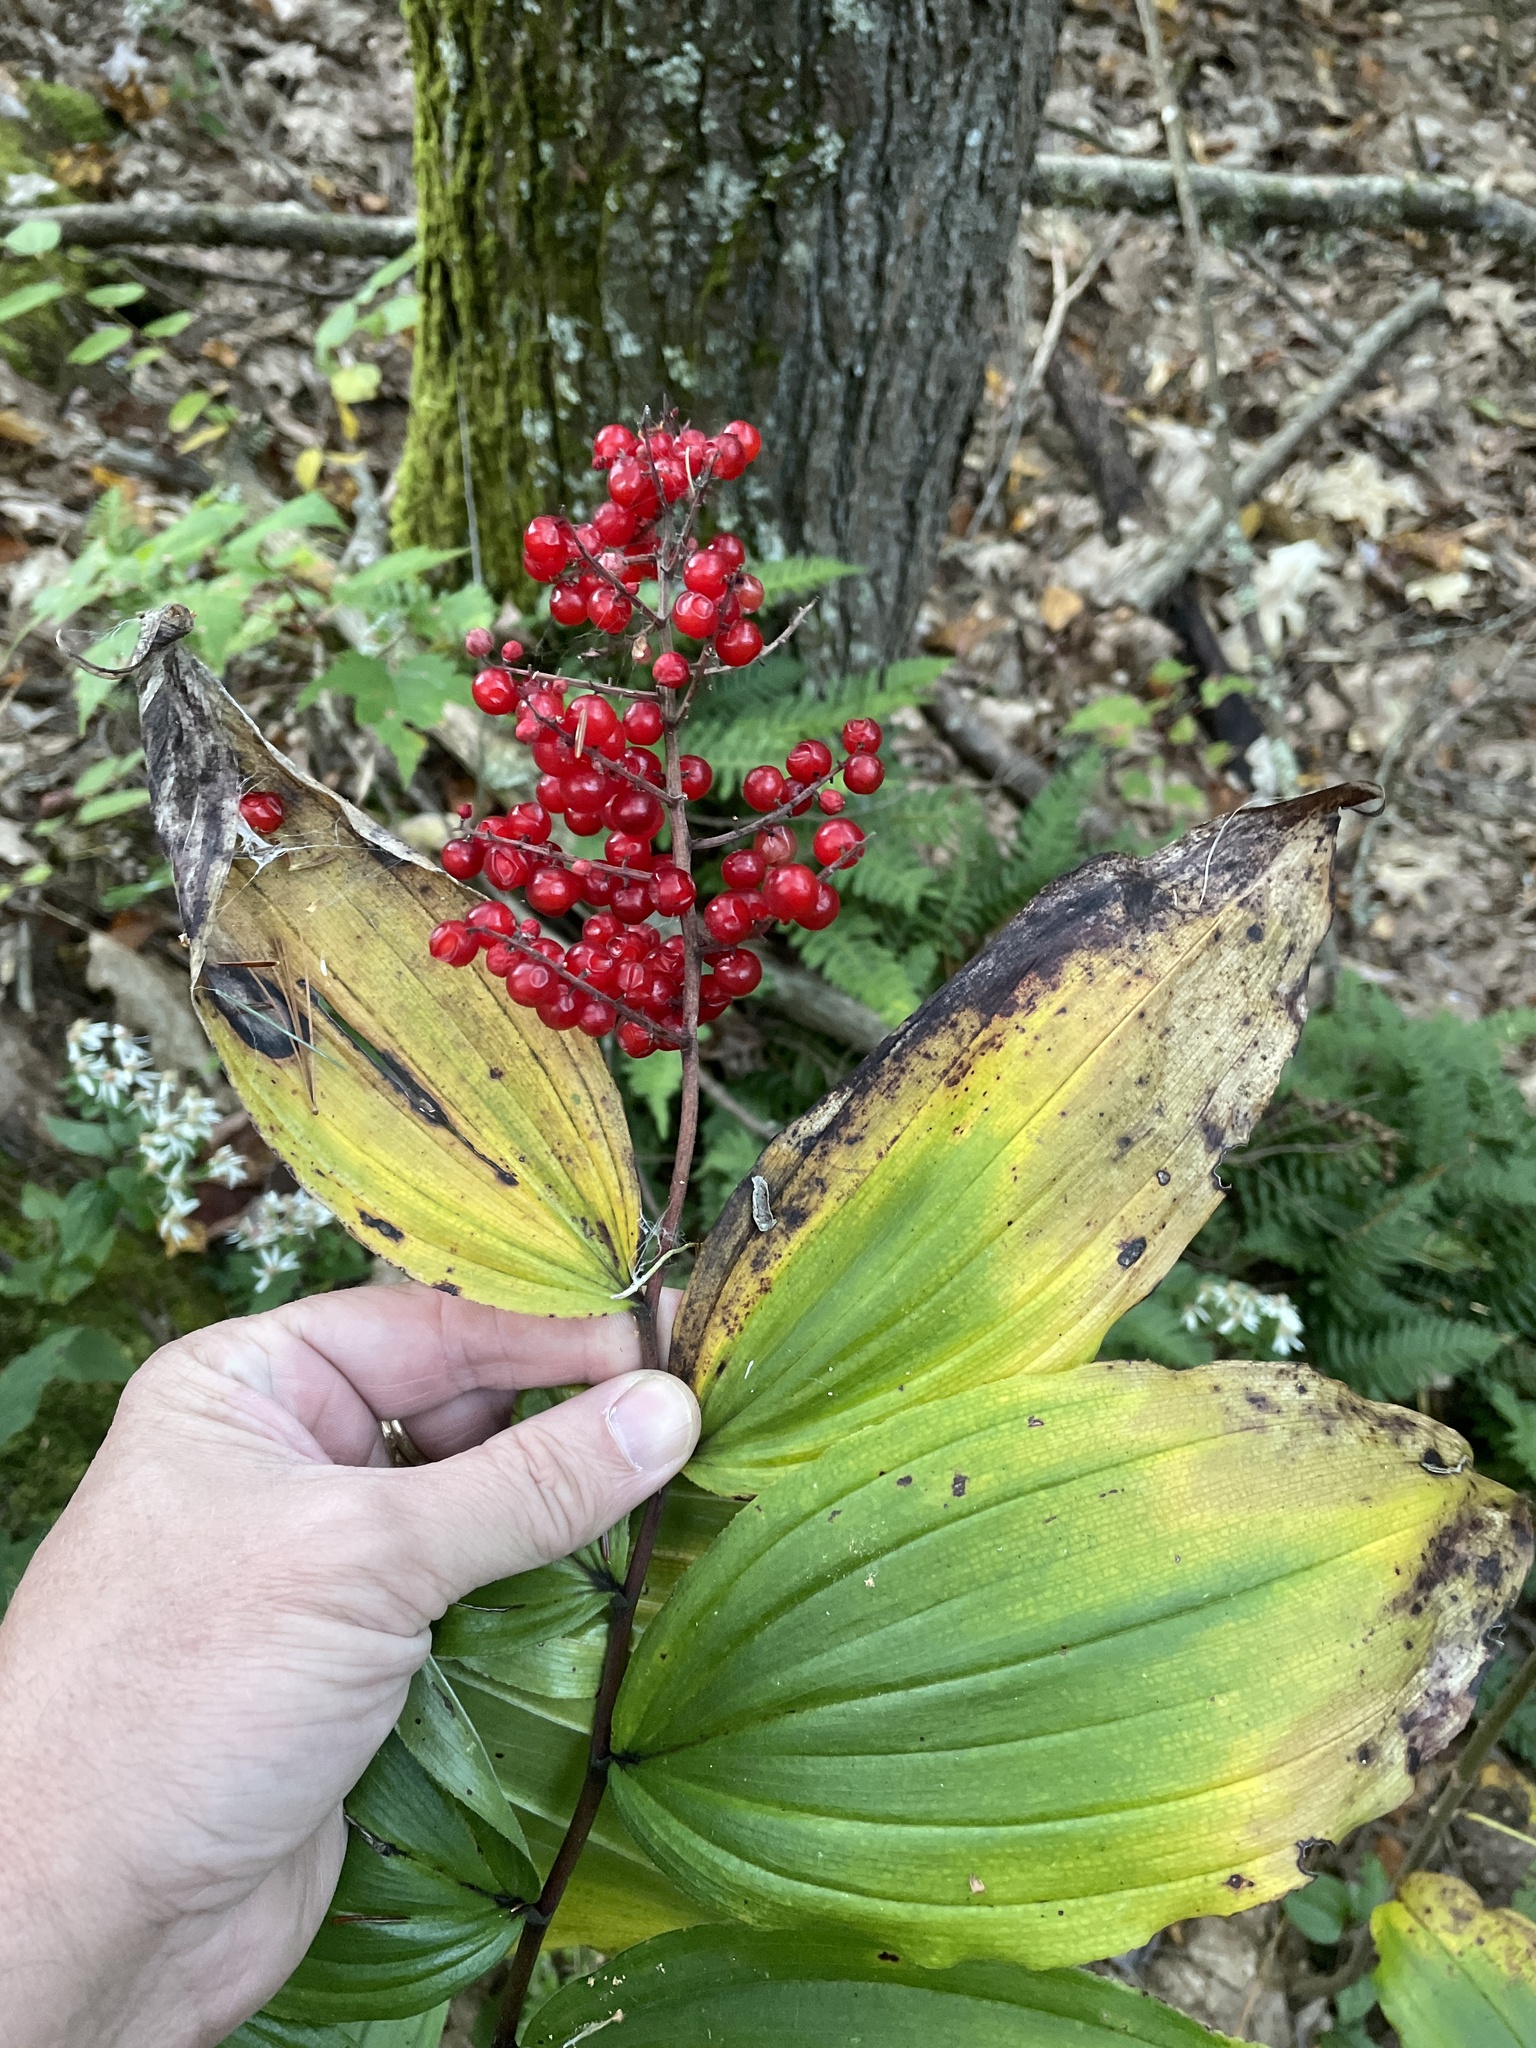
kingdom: Plantae
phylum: Tracheophyta
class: Liliopsida
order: Asparagales
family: Asparagaceae
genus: Maianthemum
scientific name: Maianthemum racemosum
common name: False spikenard
